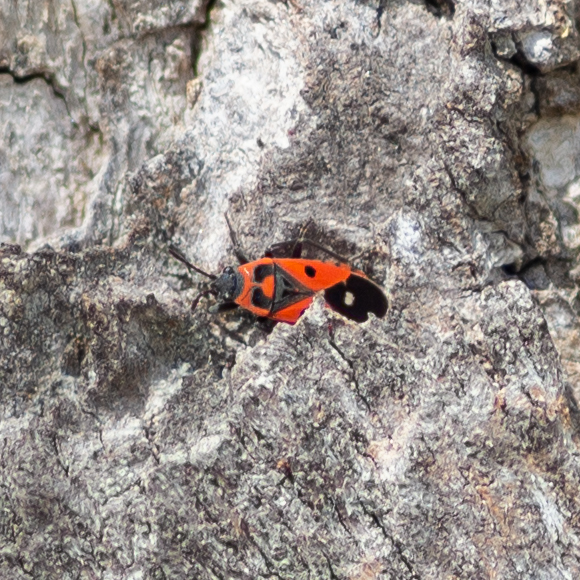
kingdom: Animalia
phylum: Arthropoda
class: Insecta
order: Hemiptera
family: Lygaeidae
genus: Melanocoryphus
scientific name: Melanocoryphus albomaculatus
